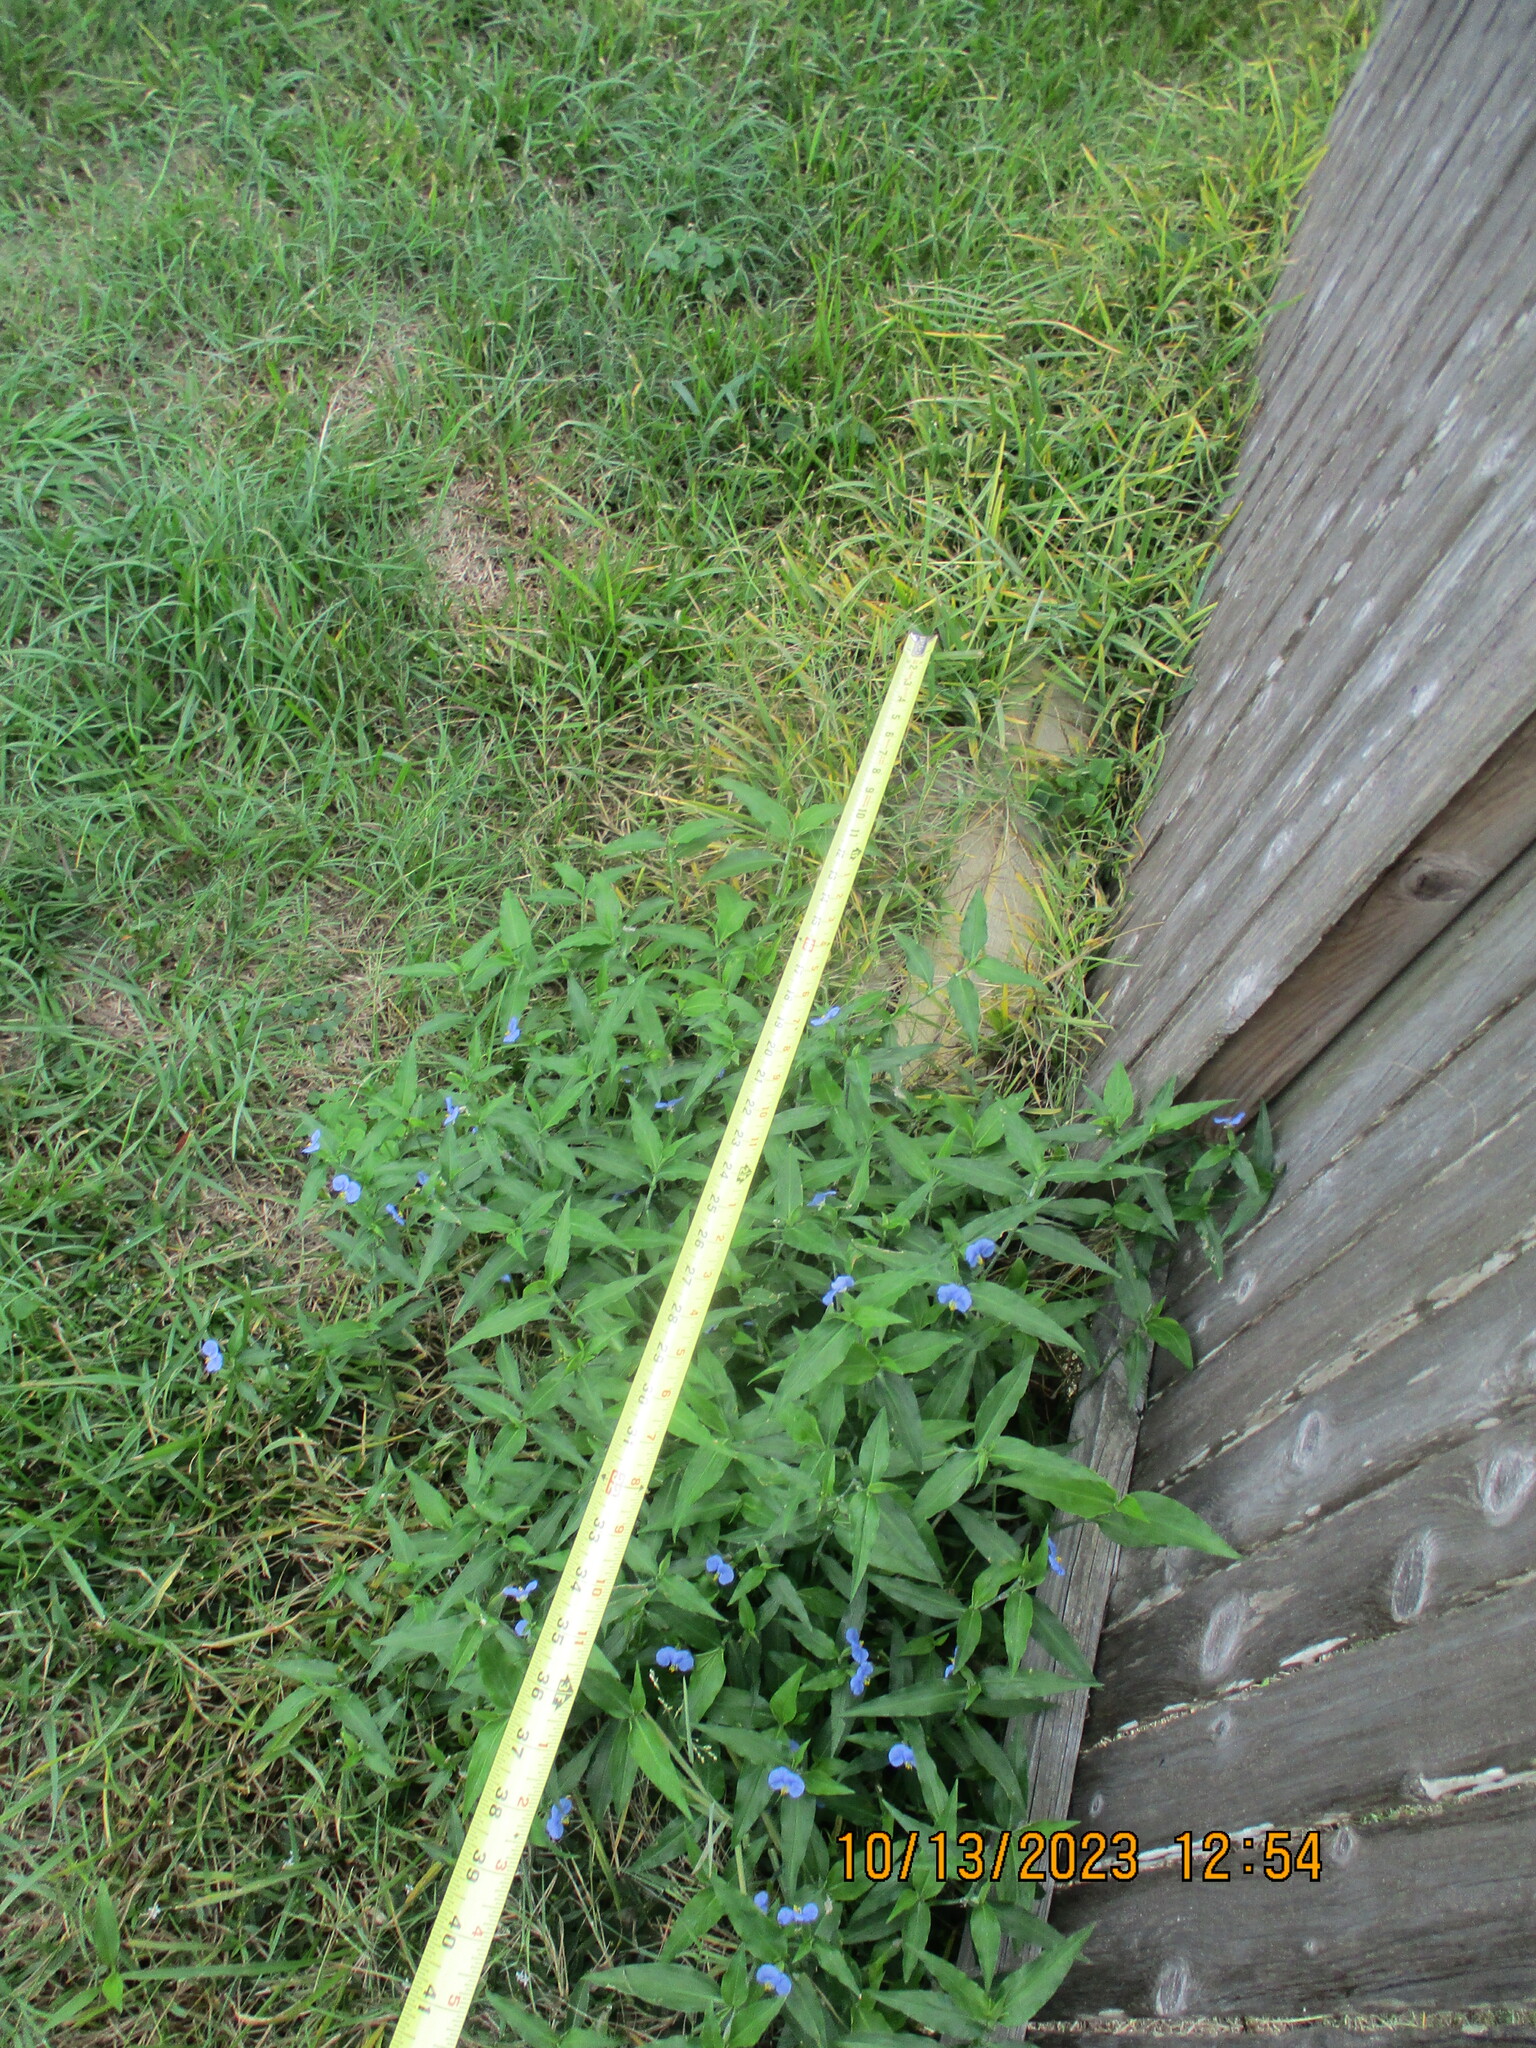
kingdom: Plantae
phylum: Tracheophyta
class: Liliopsida
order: Commelinales
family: Commelinaceae
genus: Commelina
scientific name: Commelina erecta
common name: Blousel blommetjie
